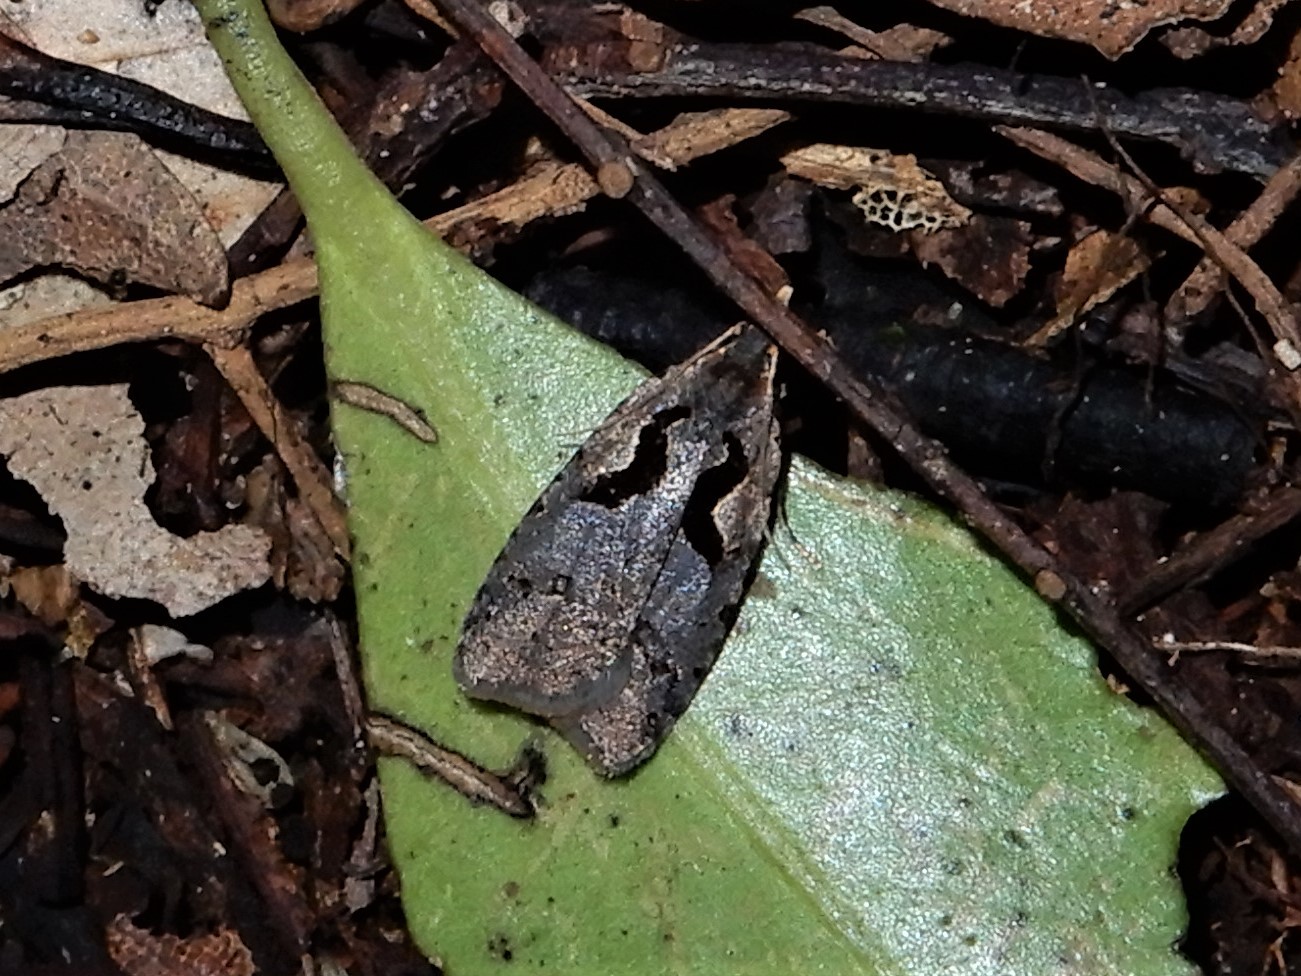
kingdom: Animalia
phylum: Arthropoda
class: Insecta
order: Lepidoptera
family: Tortricidae
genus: Cnephasia
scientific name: Cnephasia jactatana
